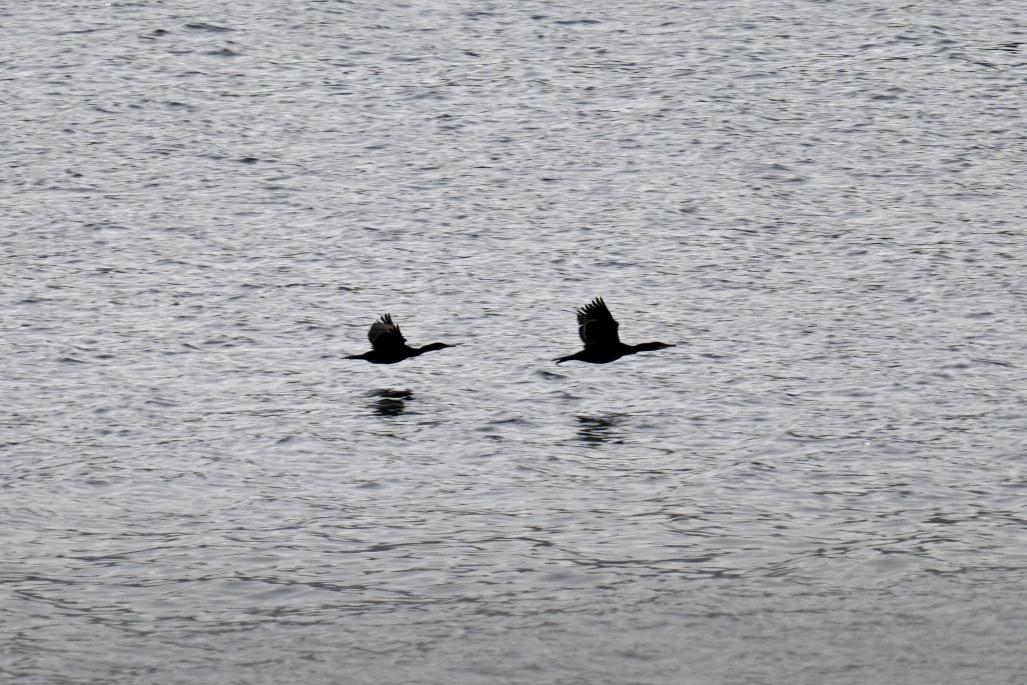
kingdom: Animalia
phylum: Chordata
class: Aves
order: Suliformes
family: Phalacrocoracidae
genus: Phalacrocorax
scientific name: Phalacrocorax carbo
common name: Great cormorant
